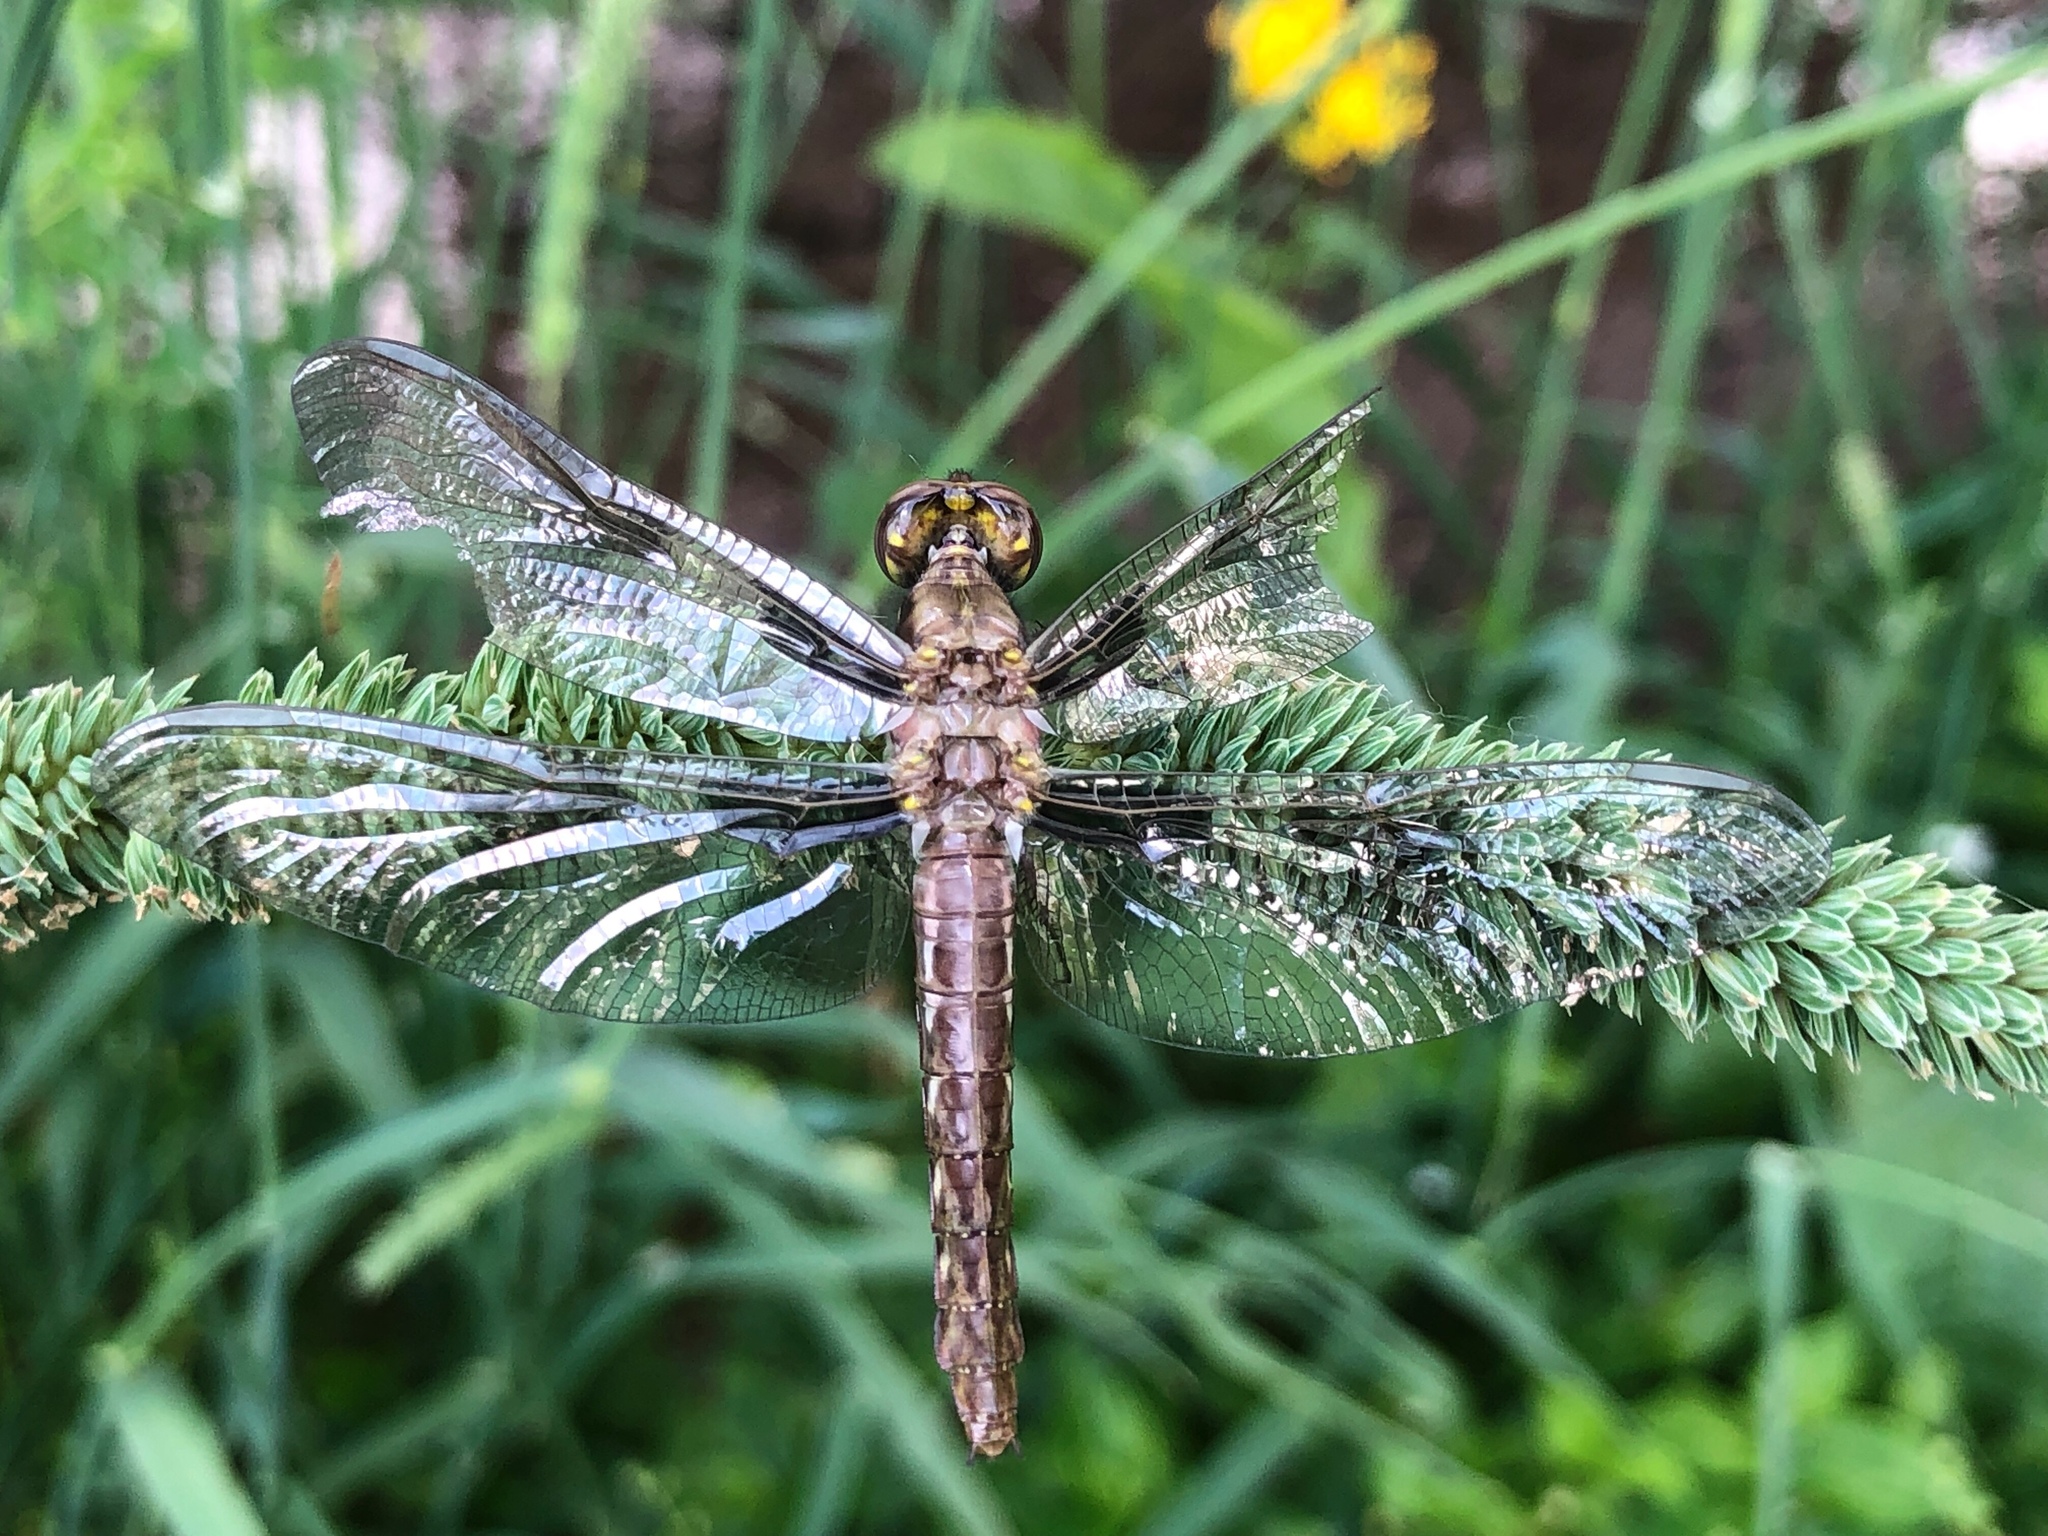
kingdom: Animalia
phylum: Arthropoda
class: Insecta
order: Odonata
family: Libellulidae
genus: Plathemis
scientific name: Plathemis lydia
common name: Common whitetail
